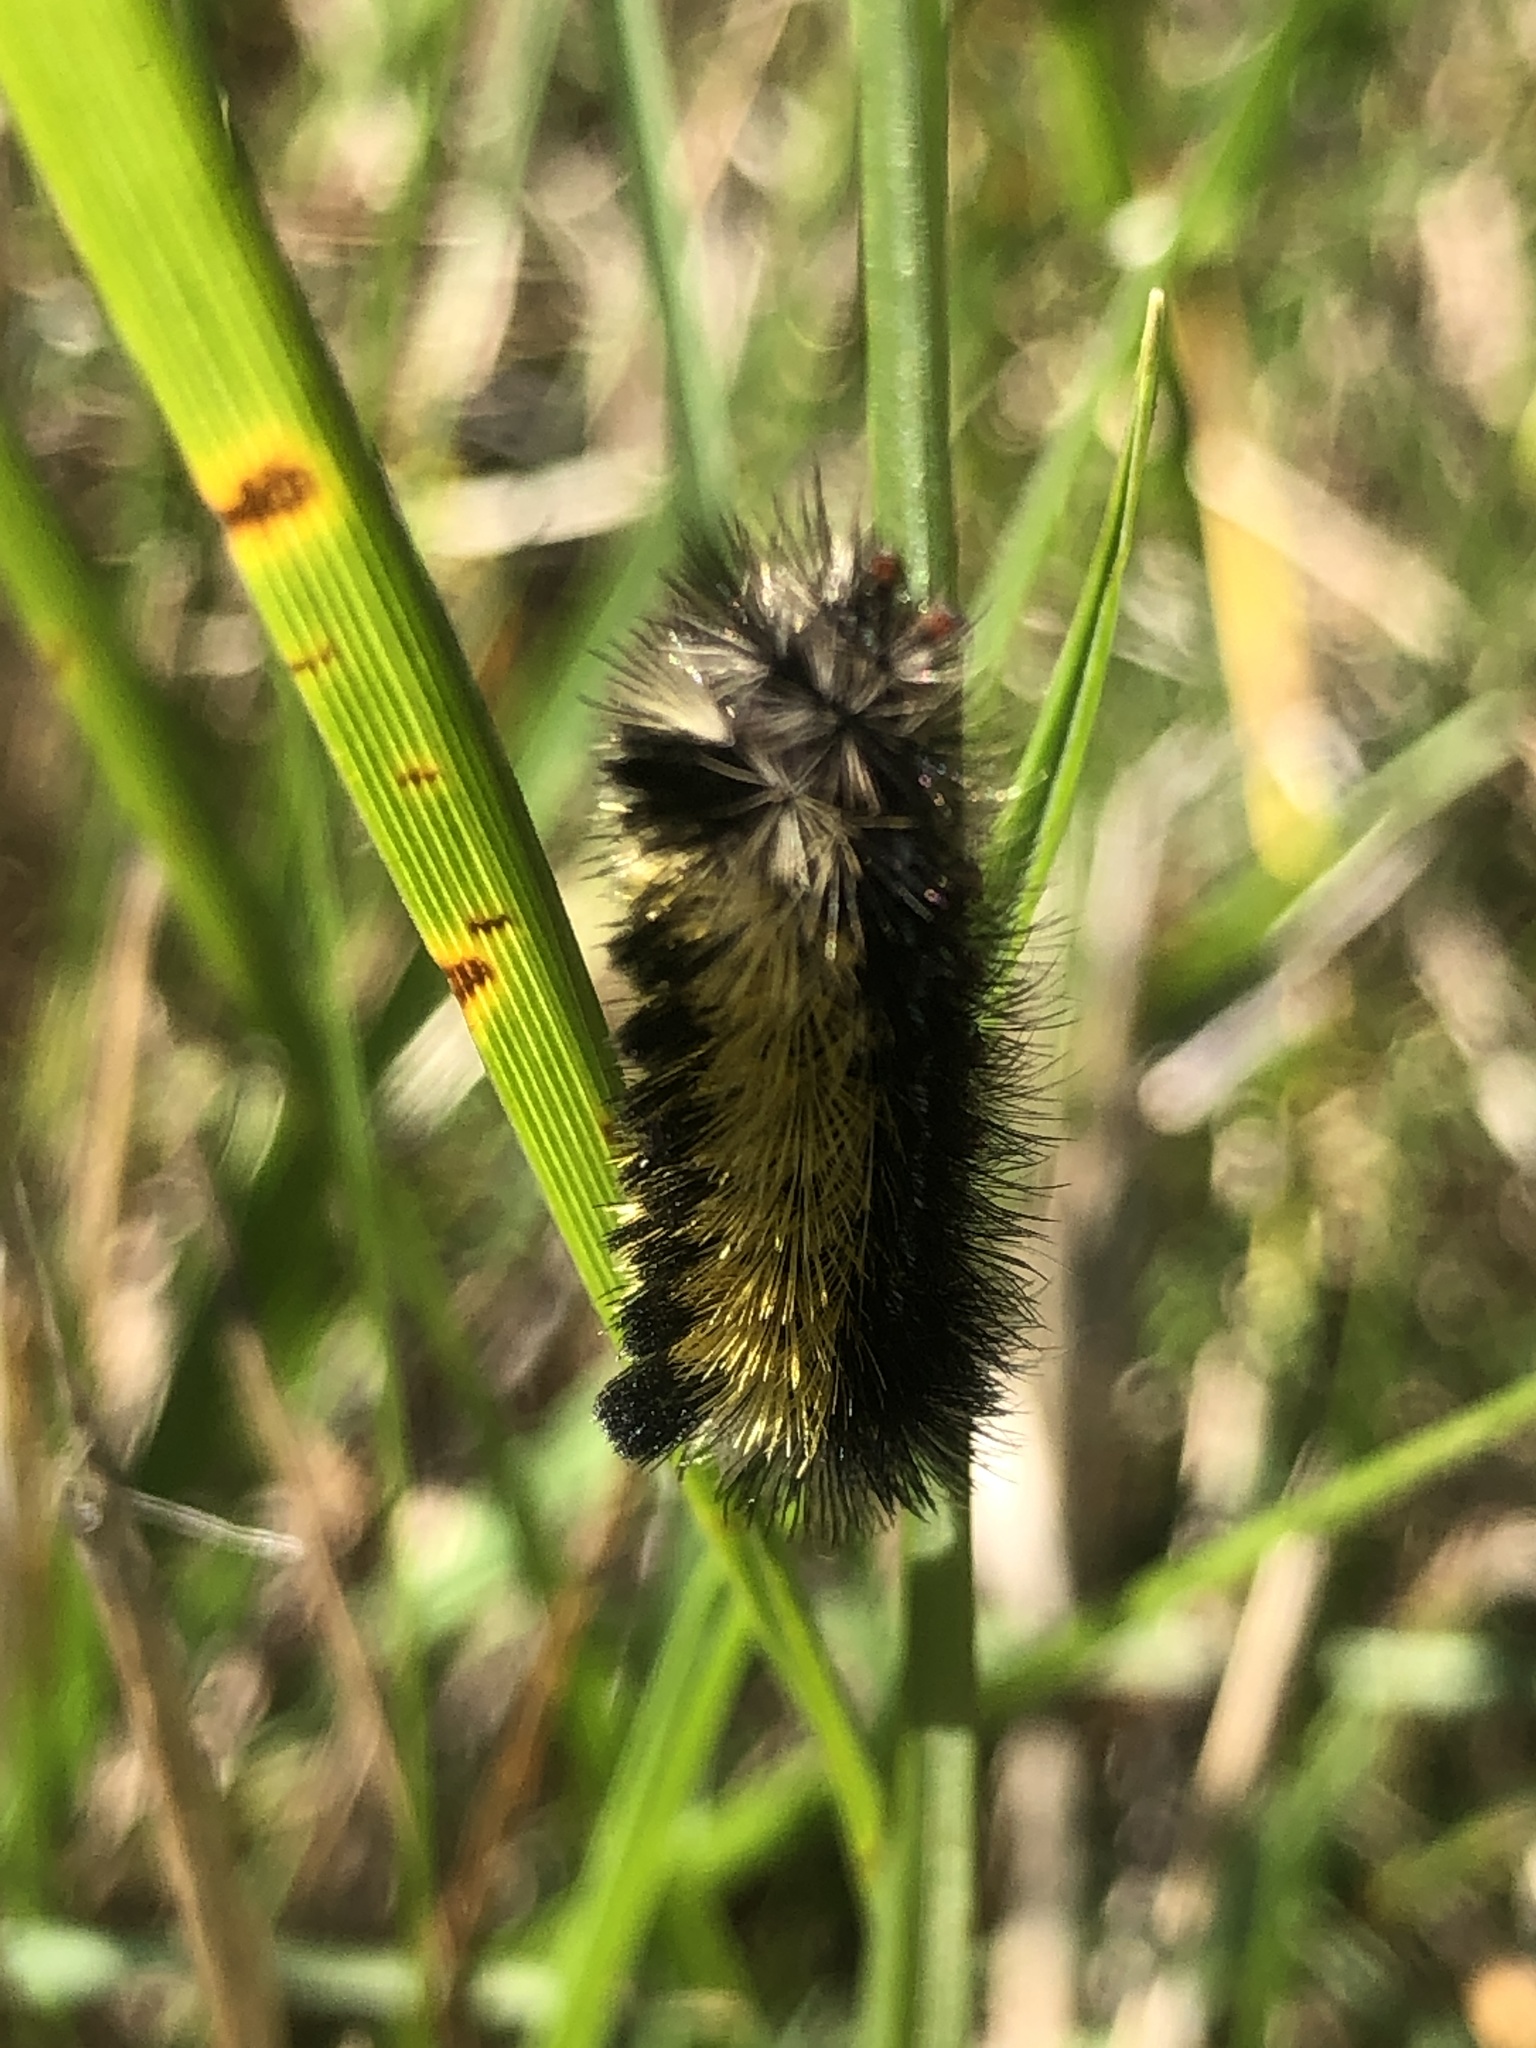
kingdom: Animalia
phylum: Arthropoda
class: Insecta
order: Lepidoptera
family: Erebidae
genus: Ctenucha
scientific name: Ctenucha virginica
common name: Virginia ctenucha moth
